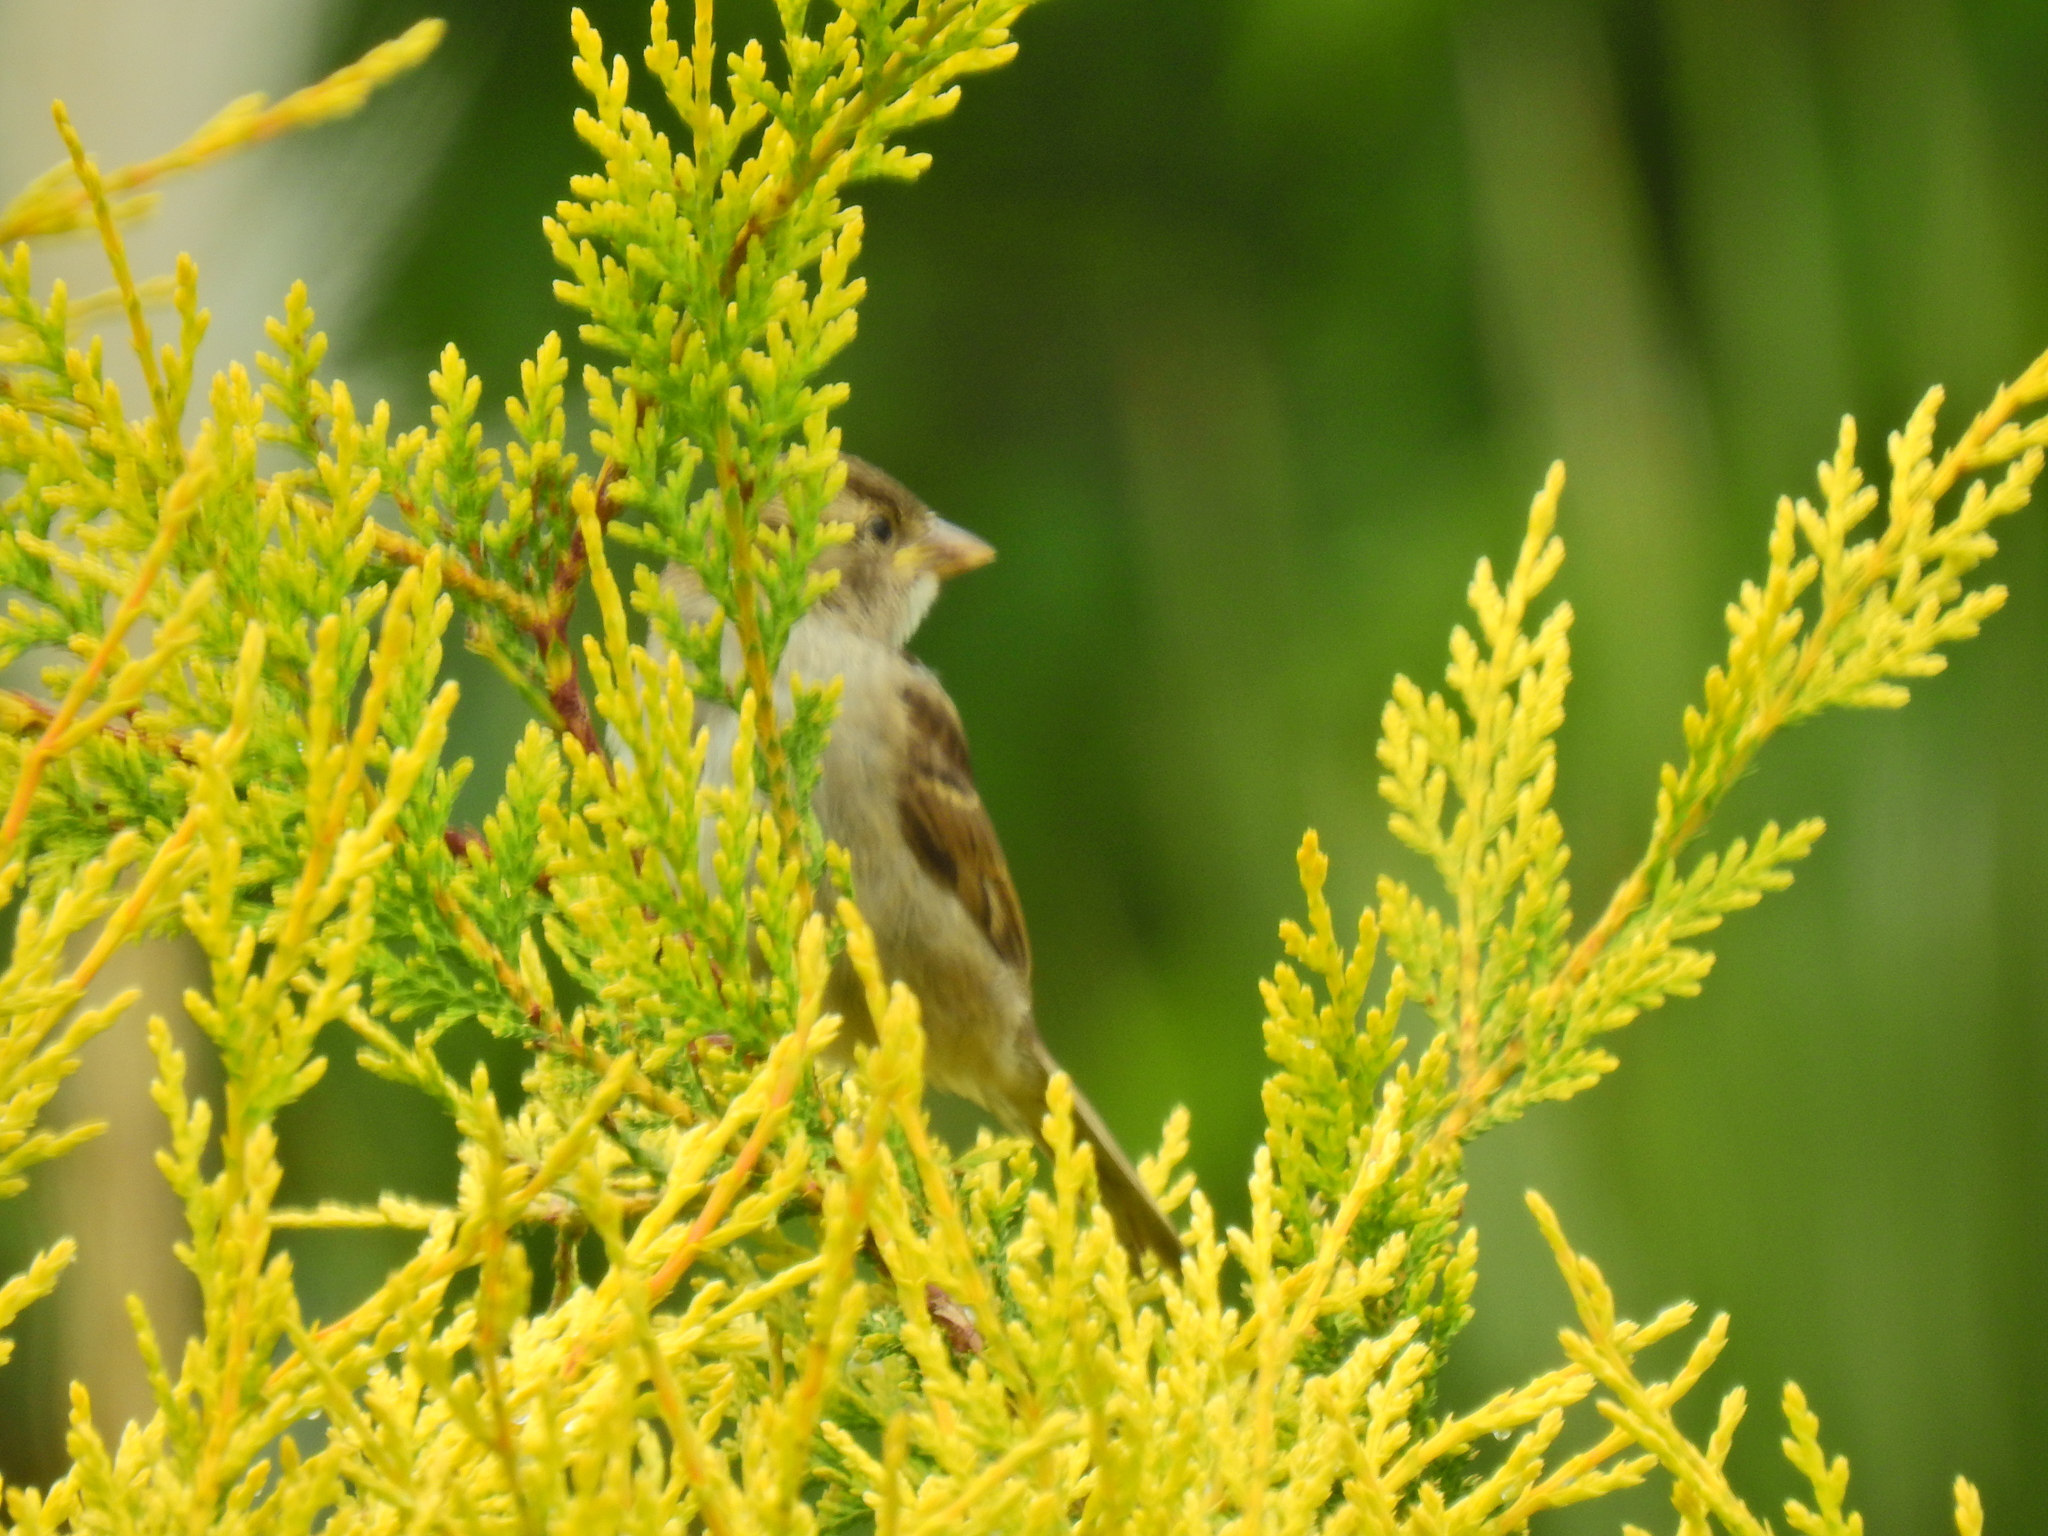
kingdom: Animalia
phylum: Chordata
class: Aves
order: Passeriformes
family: Passeridae
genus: Passer
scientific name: Passer domesticus
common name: House sparrow
